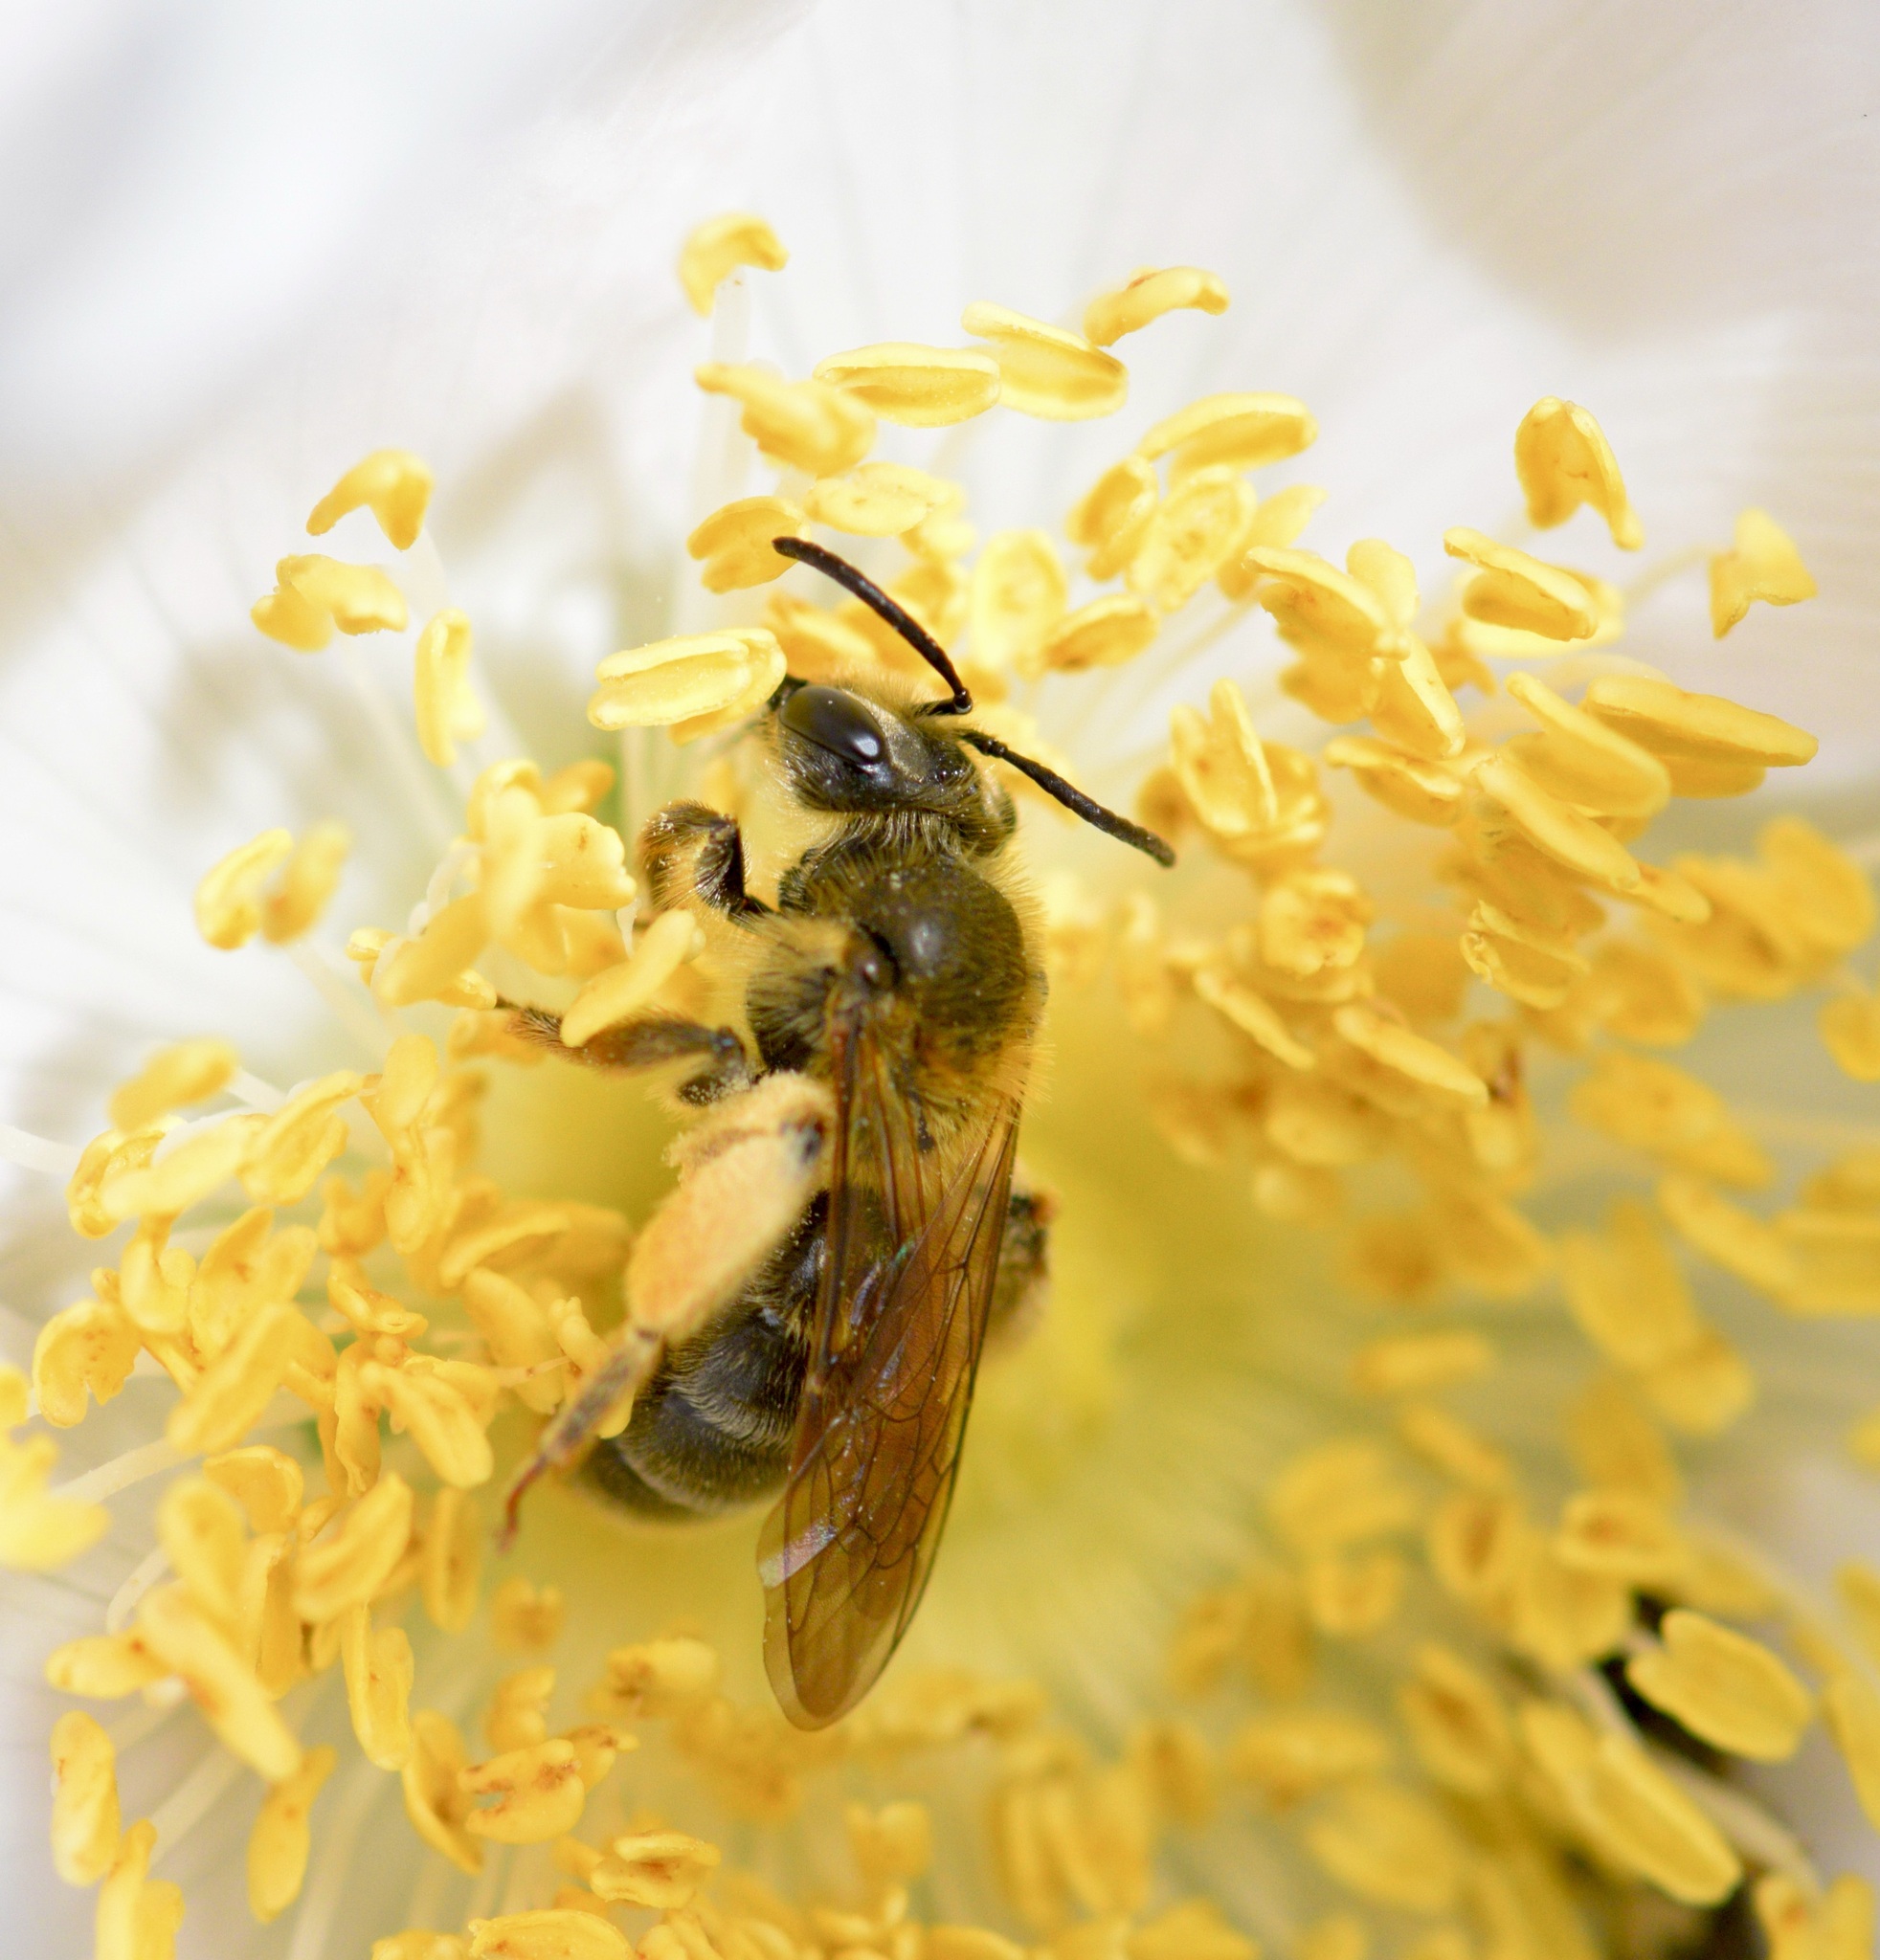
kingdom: Animalia
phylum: Arthropoda
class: Insecta
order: Hymenoptera
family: Andrenidae
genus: Andrena
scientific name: Andrena thaspii
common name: Parsnip miner bee
